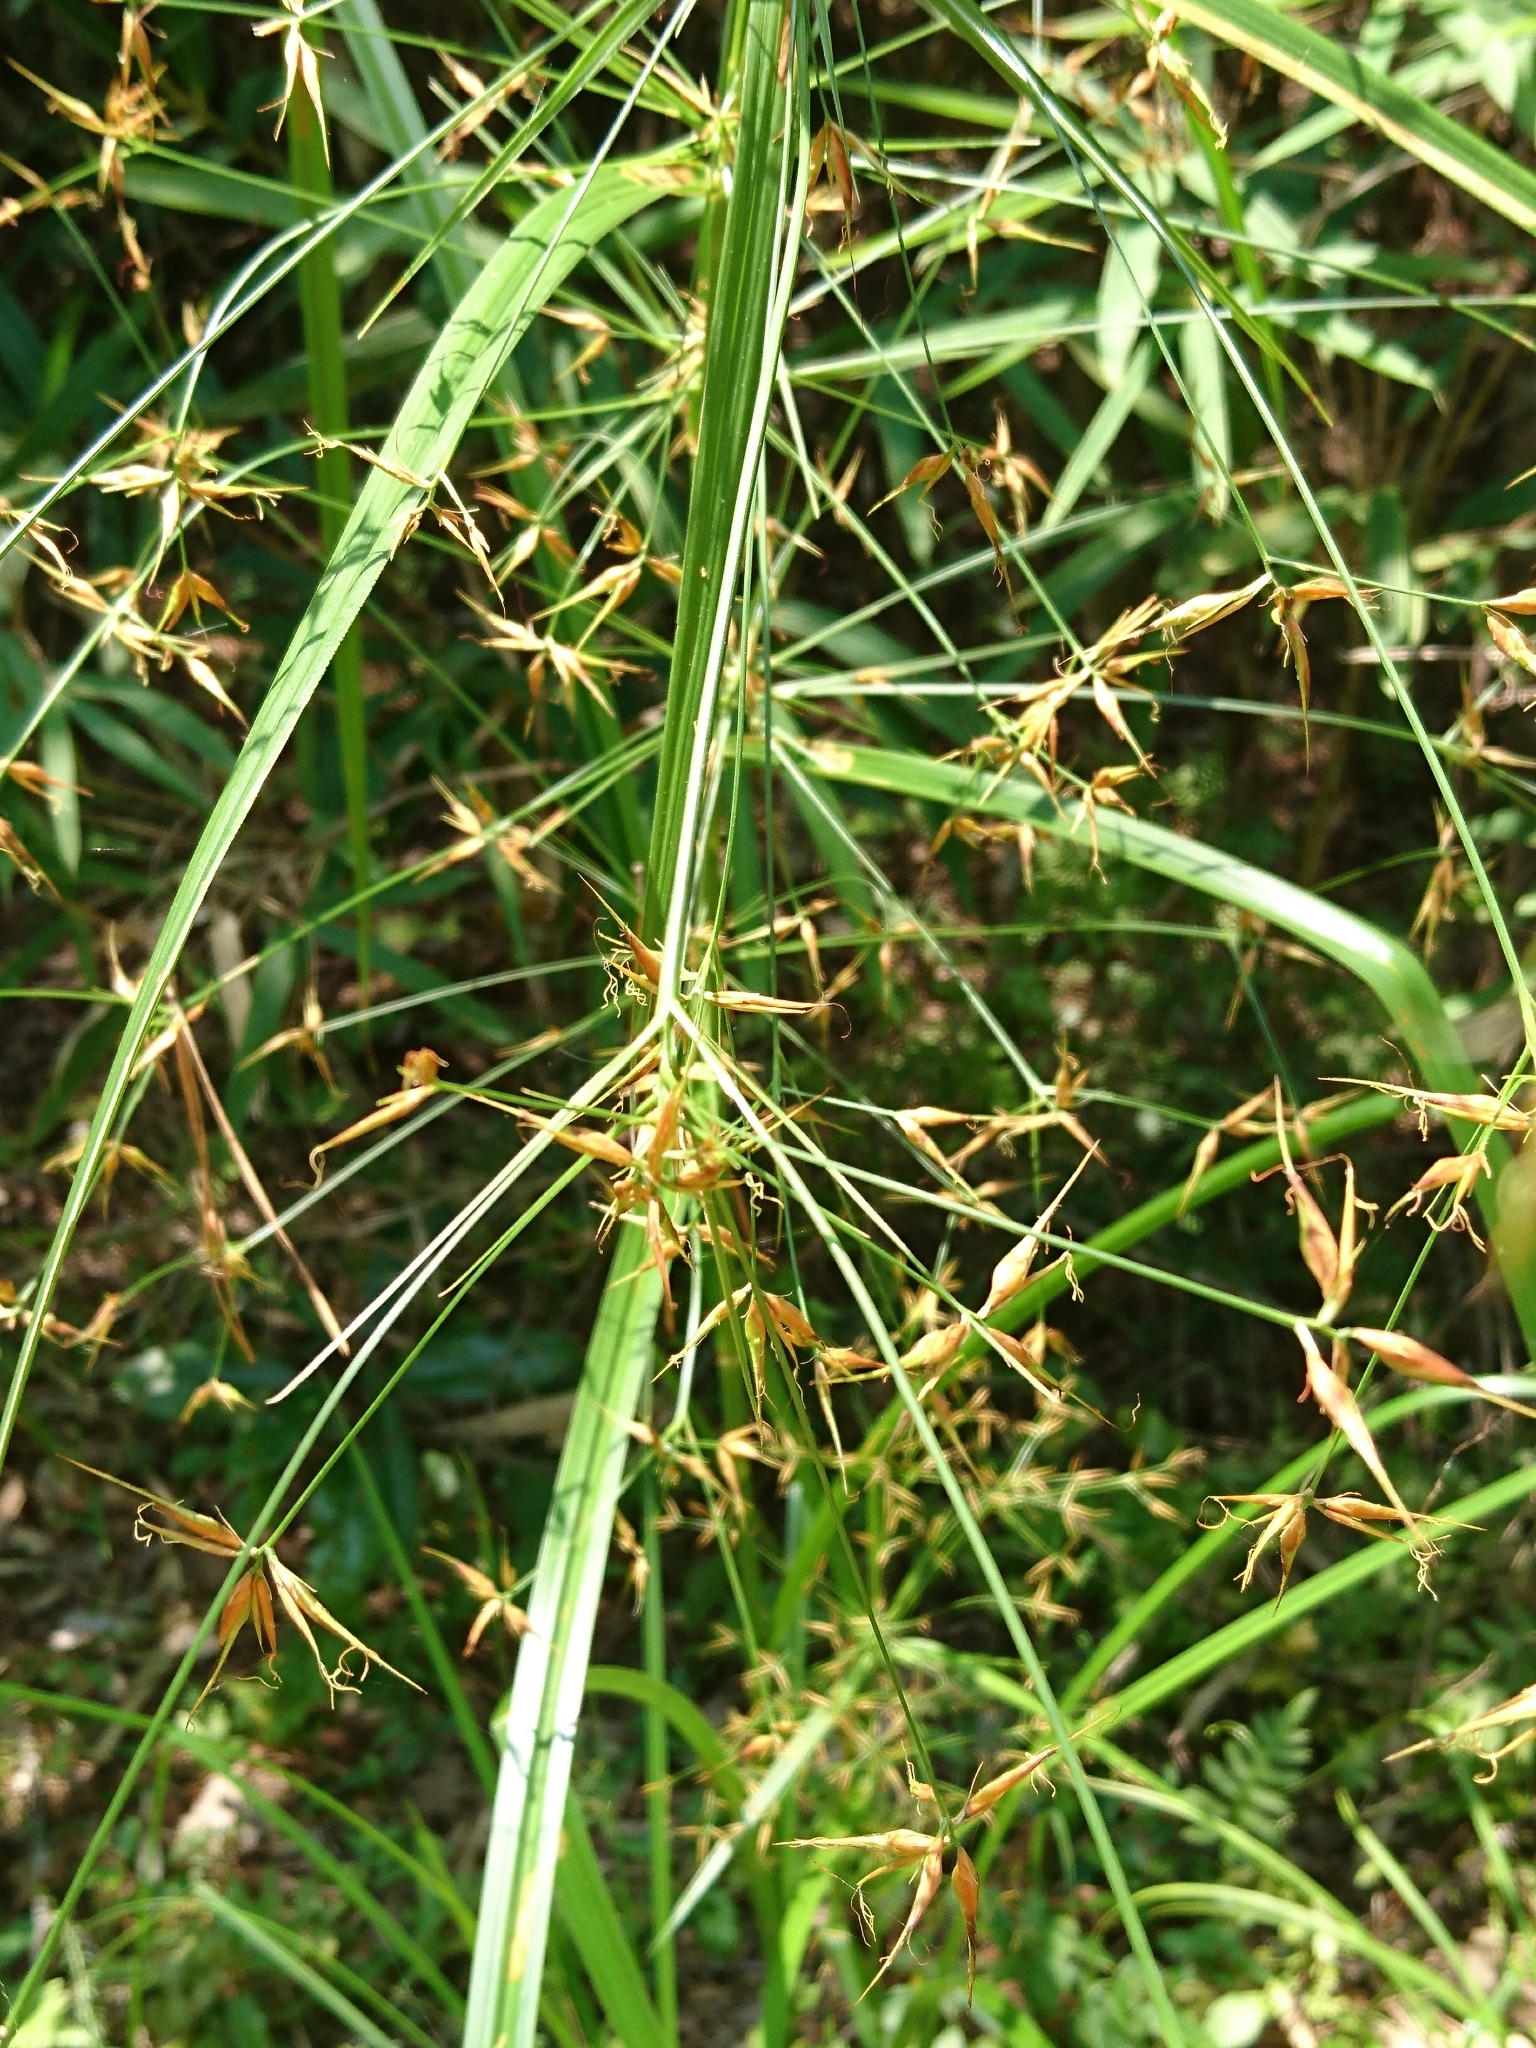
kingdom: Plantae
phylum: Tracheophyta
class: Liliopsida
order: Poales
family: Cyperaceae
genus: Rhynchospora
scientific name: Rhynchospora corniculata
